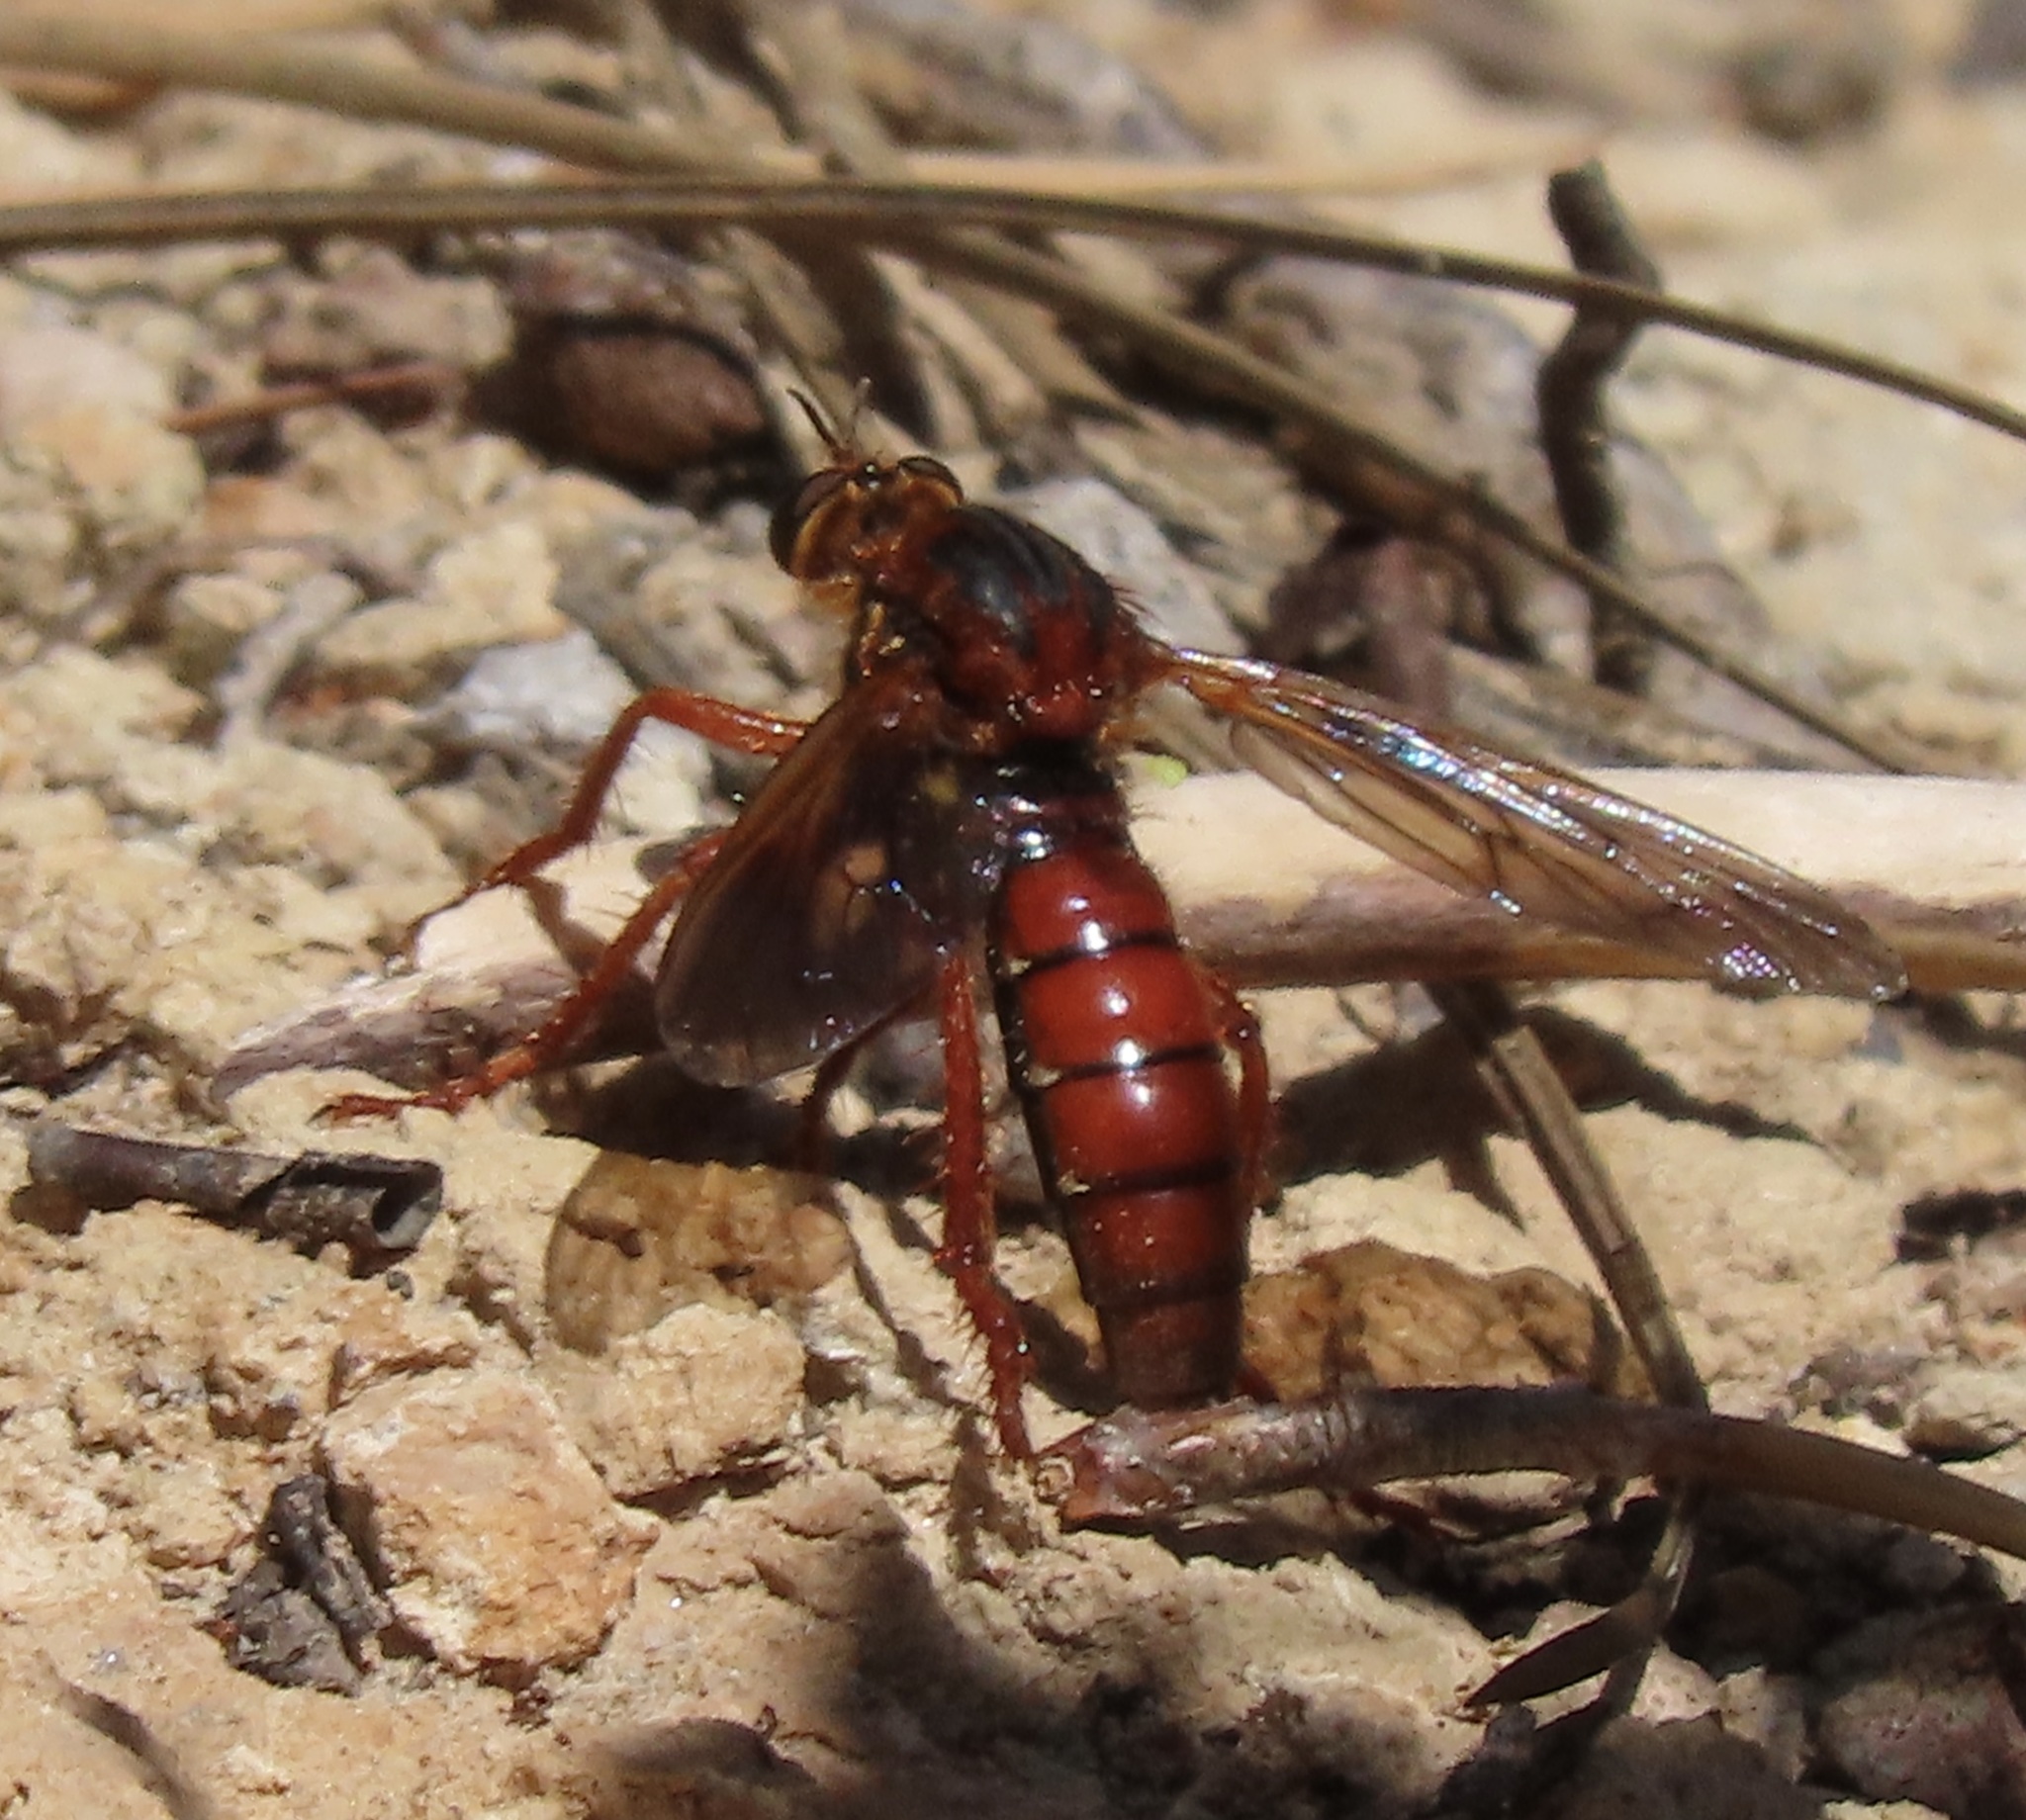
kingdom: Animalia
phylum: Arthropoda
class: Insecta
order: Diptera
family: Asilidae
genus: Callinicus
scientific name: Callinicus calcaneus
